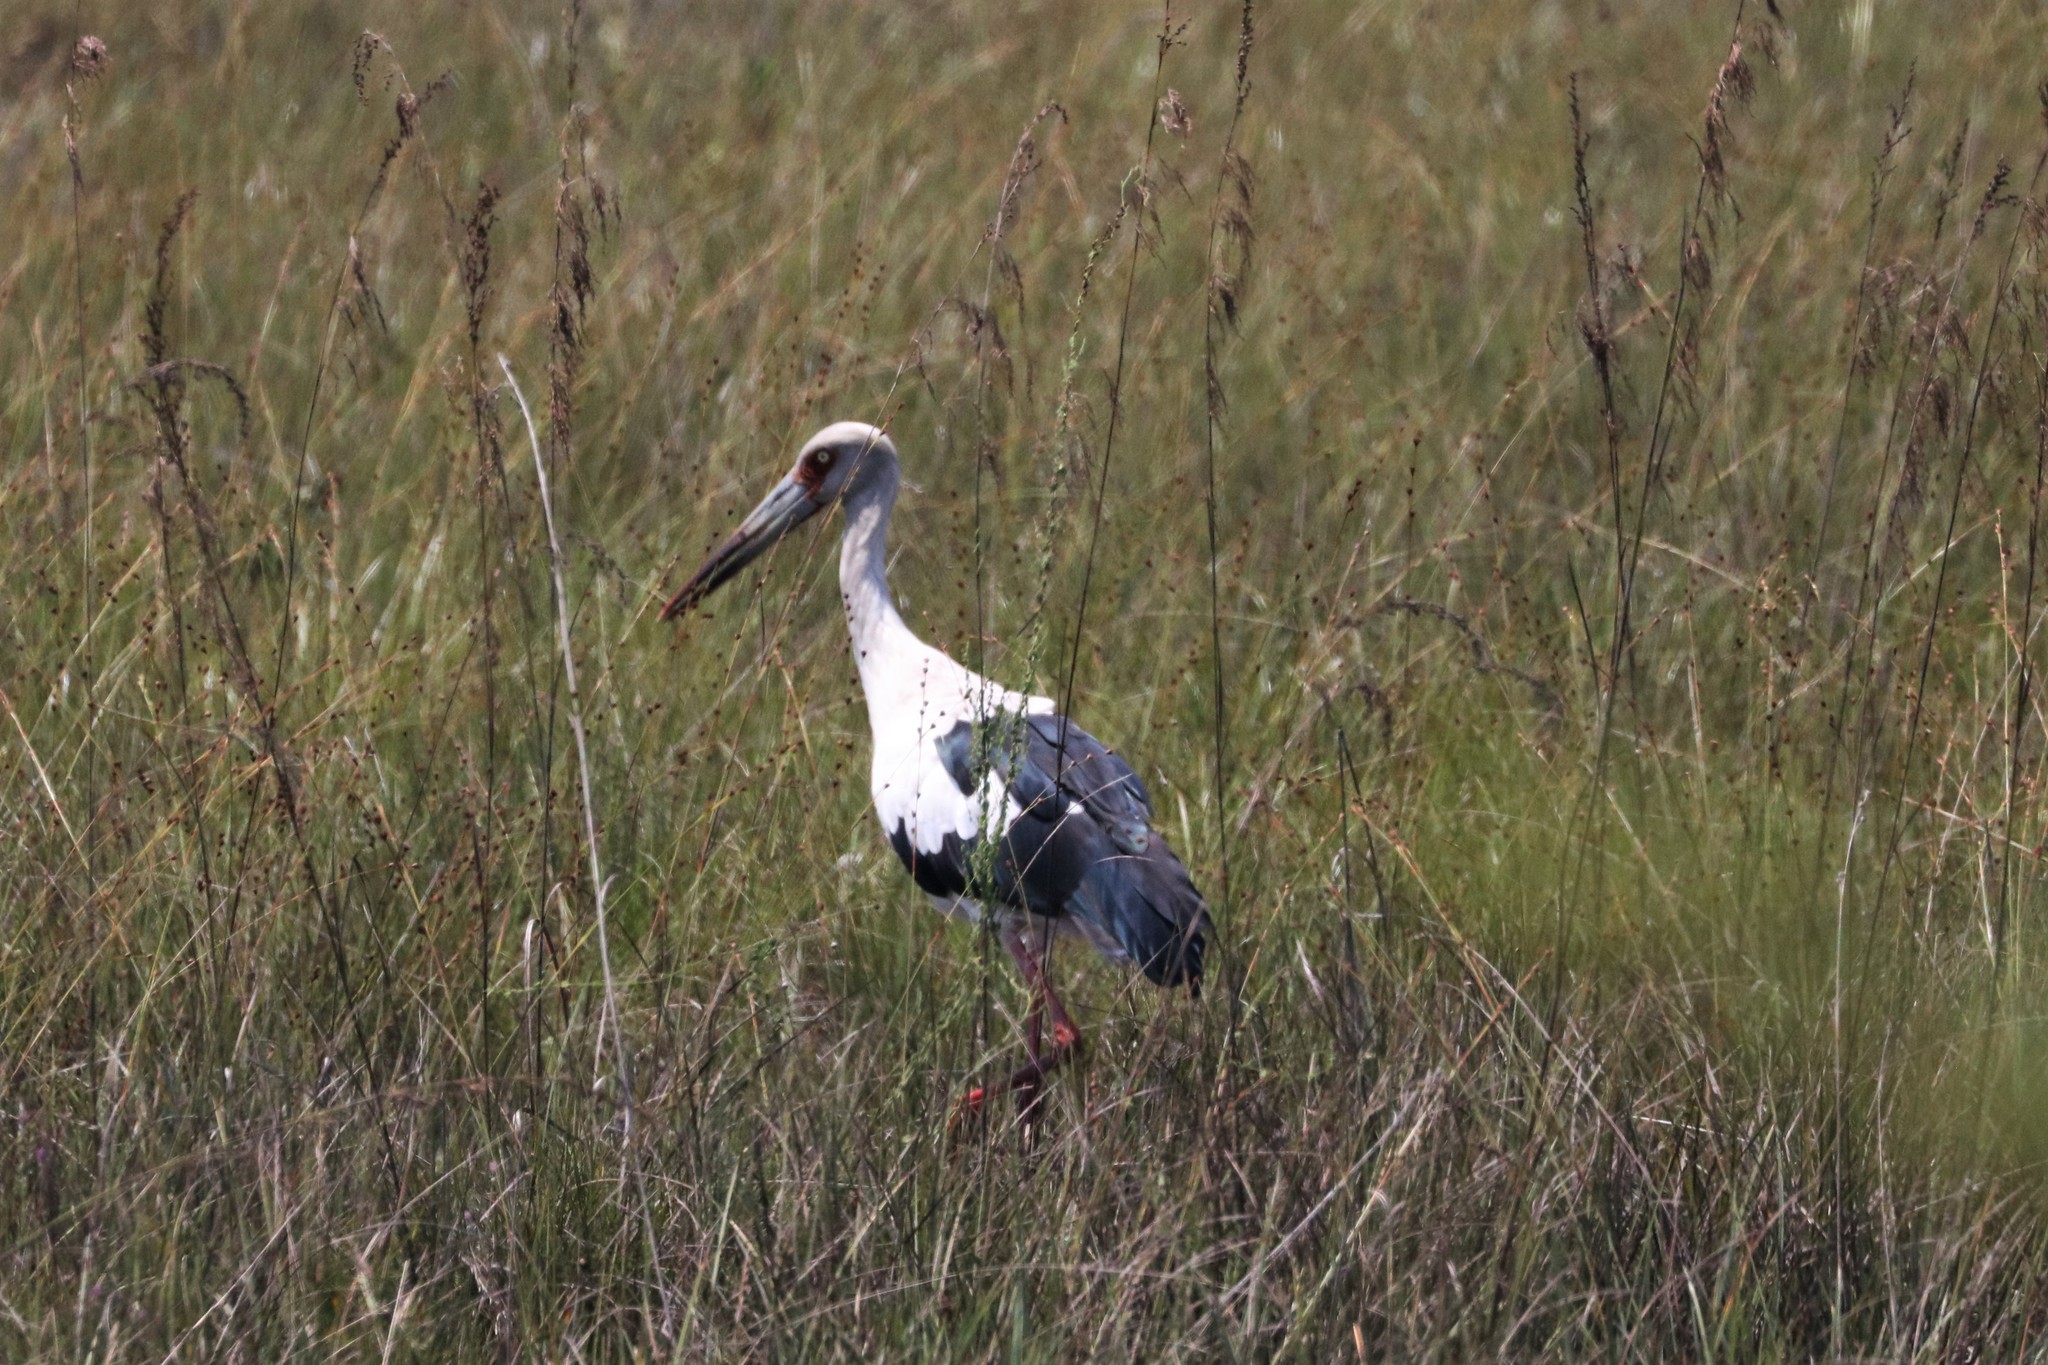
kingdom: Animalia
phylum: Chordata
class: Aves
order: Ciconiiformes
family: Ciconiidae
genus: Ciconia
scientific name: Ciconia maguari
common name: Maguari stork
